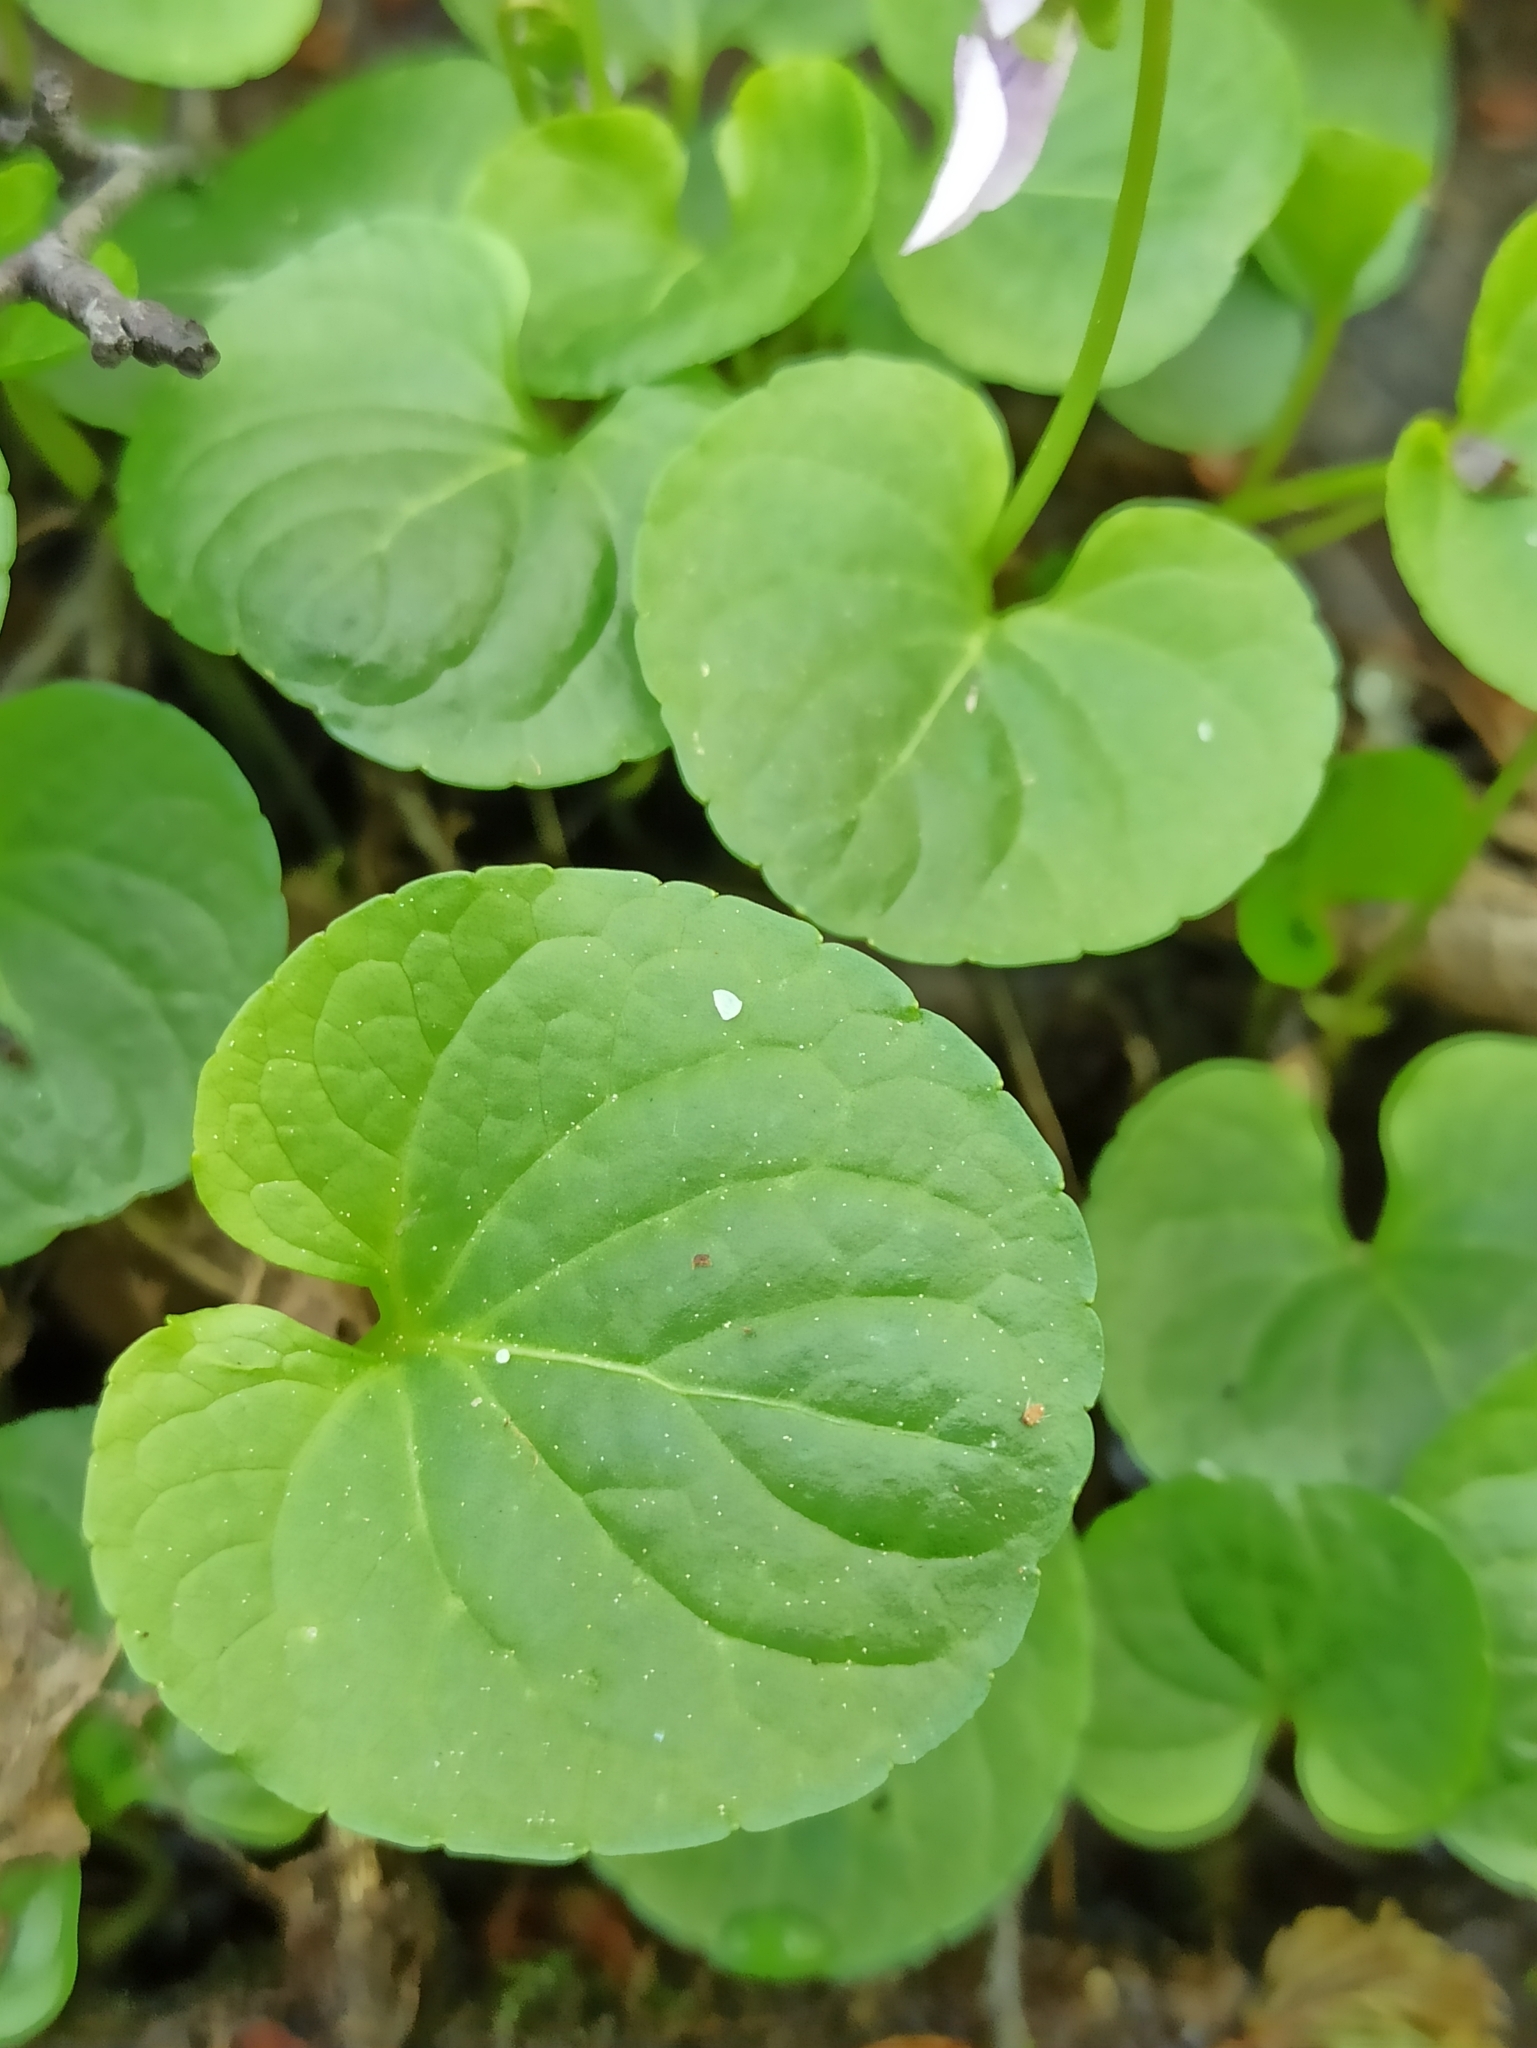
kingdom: Plantae
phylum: Tracheophyta
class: Magnoliopsida
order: Malpighiales
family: Violaceae
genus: Viola
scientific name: Viola palustris
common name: Marsh violet
